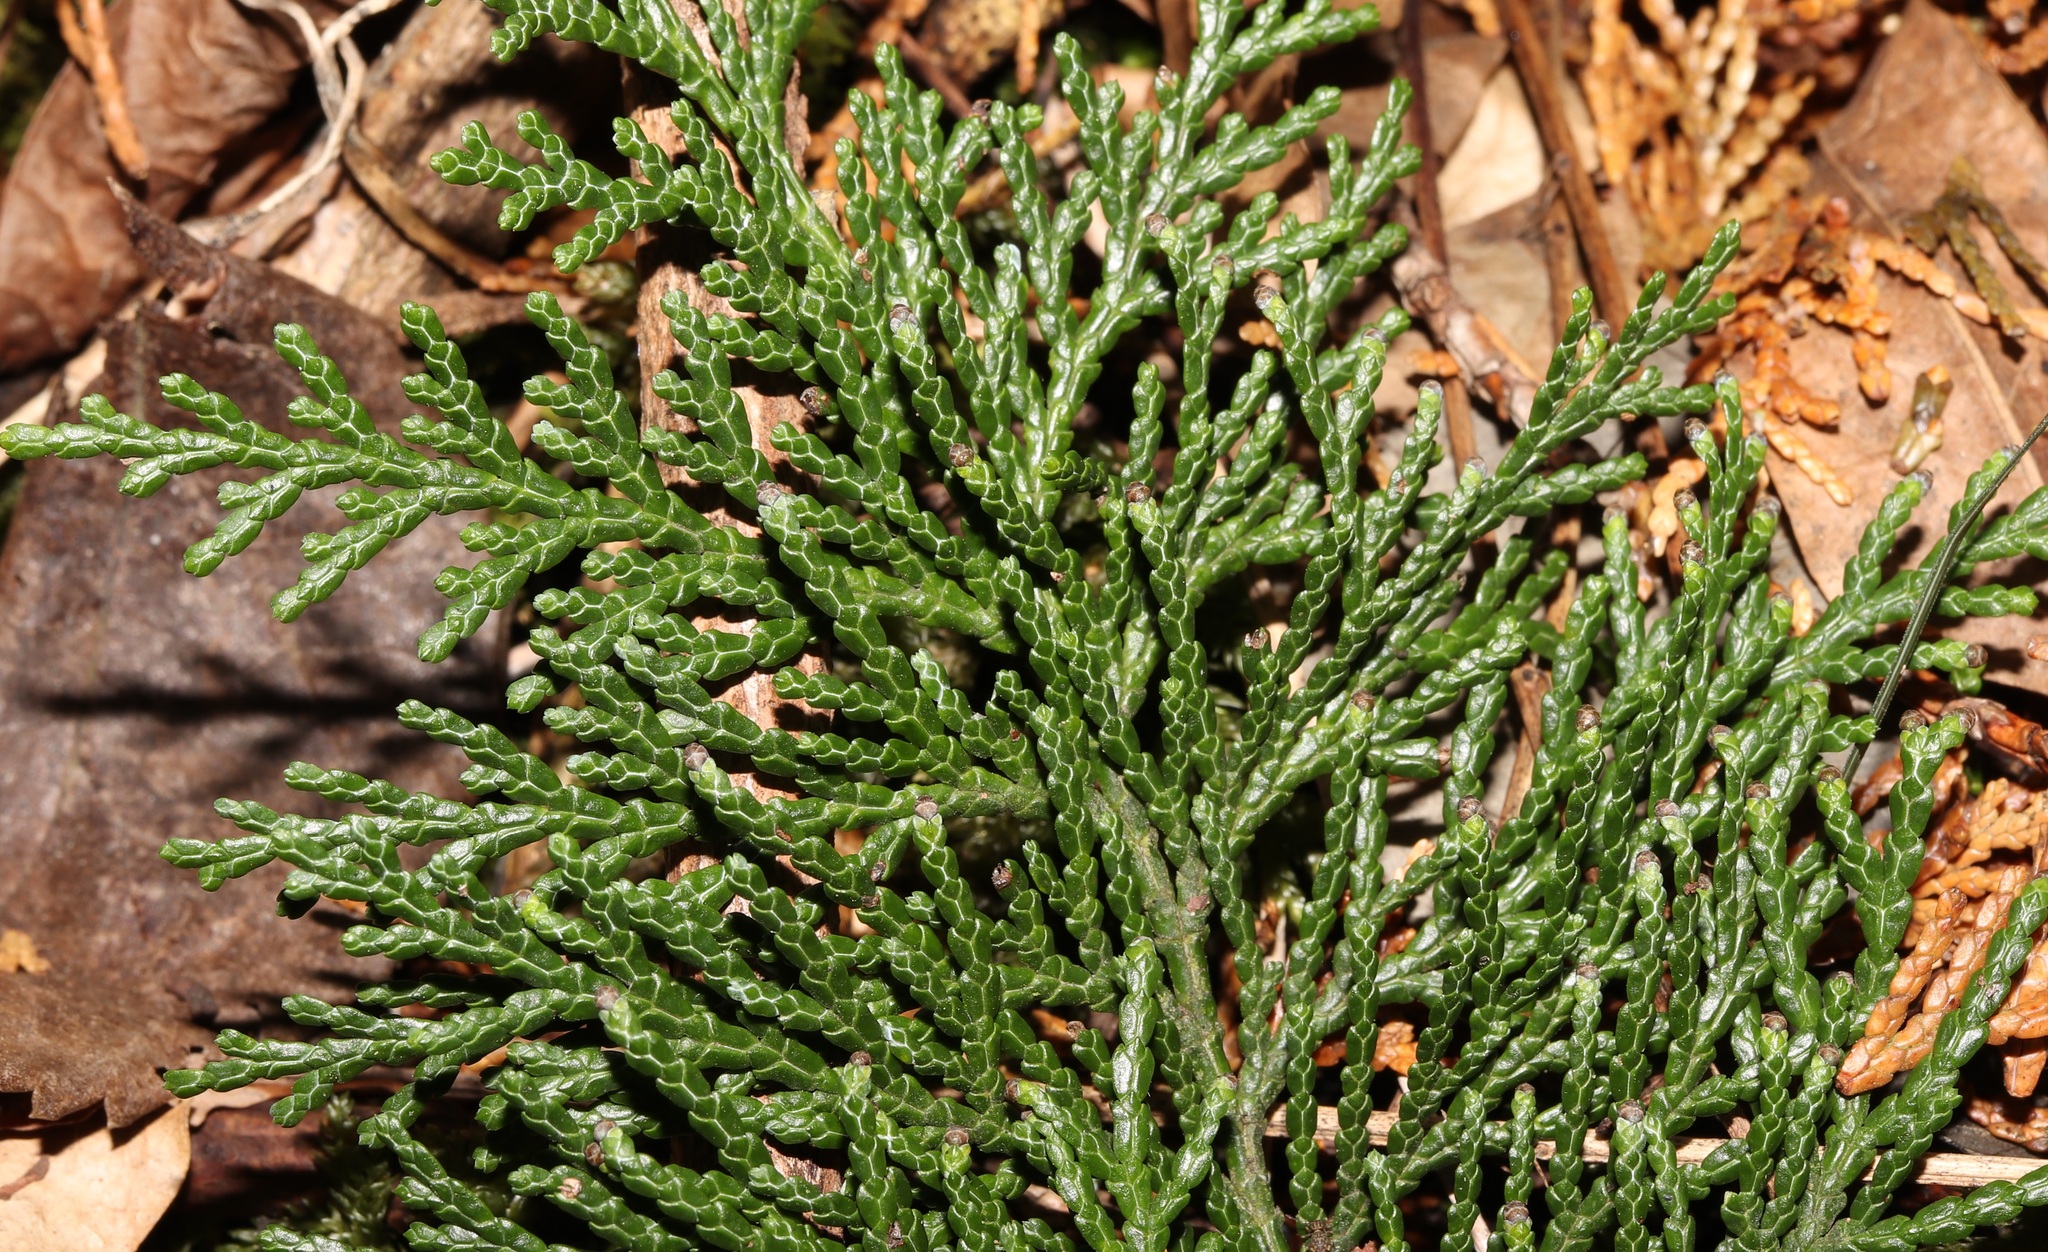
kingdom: Plantae
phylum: Tracheophyta
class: Pinopsida
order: Pinales
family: Cupressaceae
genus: Chamaecyparis
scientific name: Chamaecyparis obtusa
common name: Hinoki false cypress
